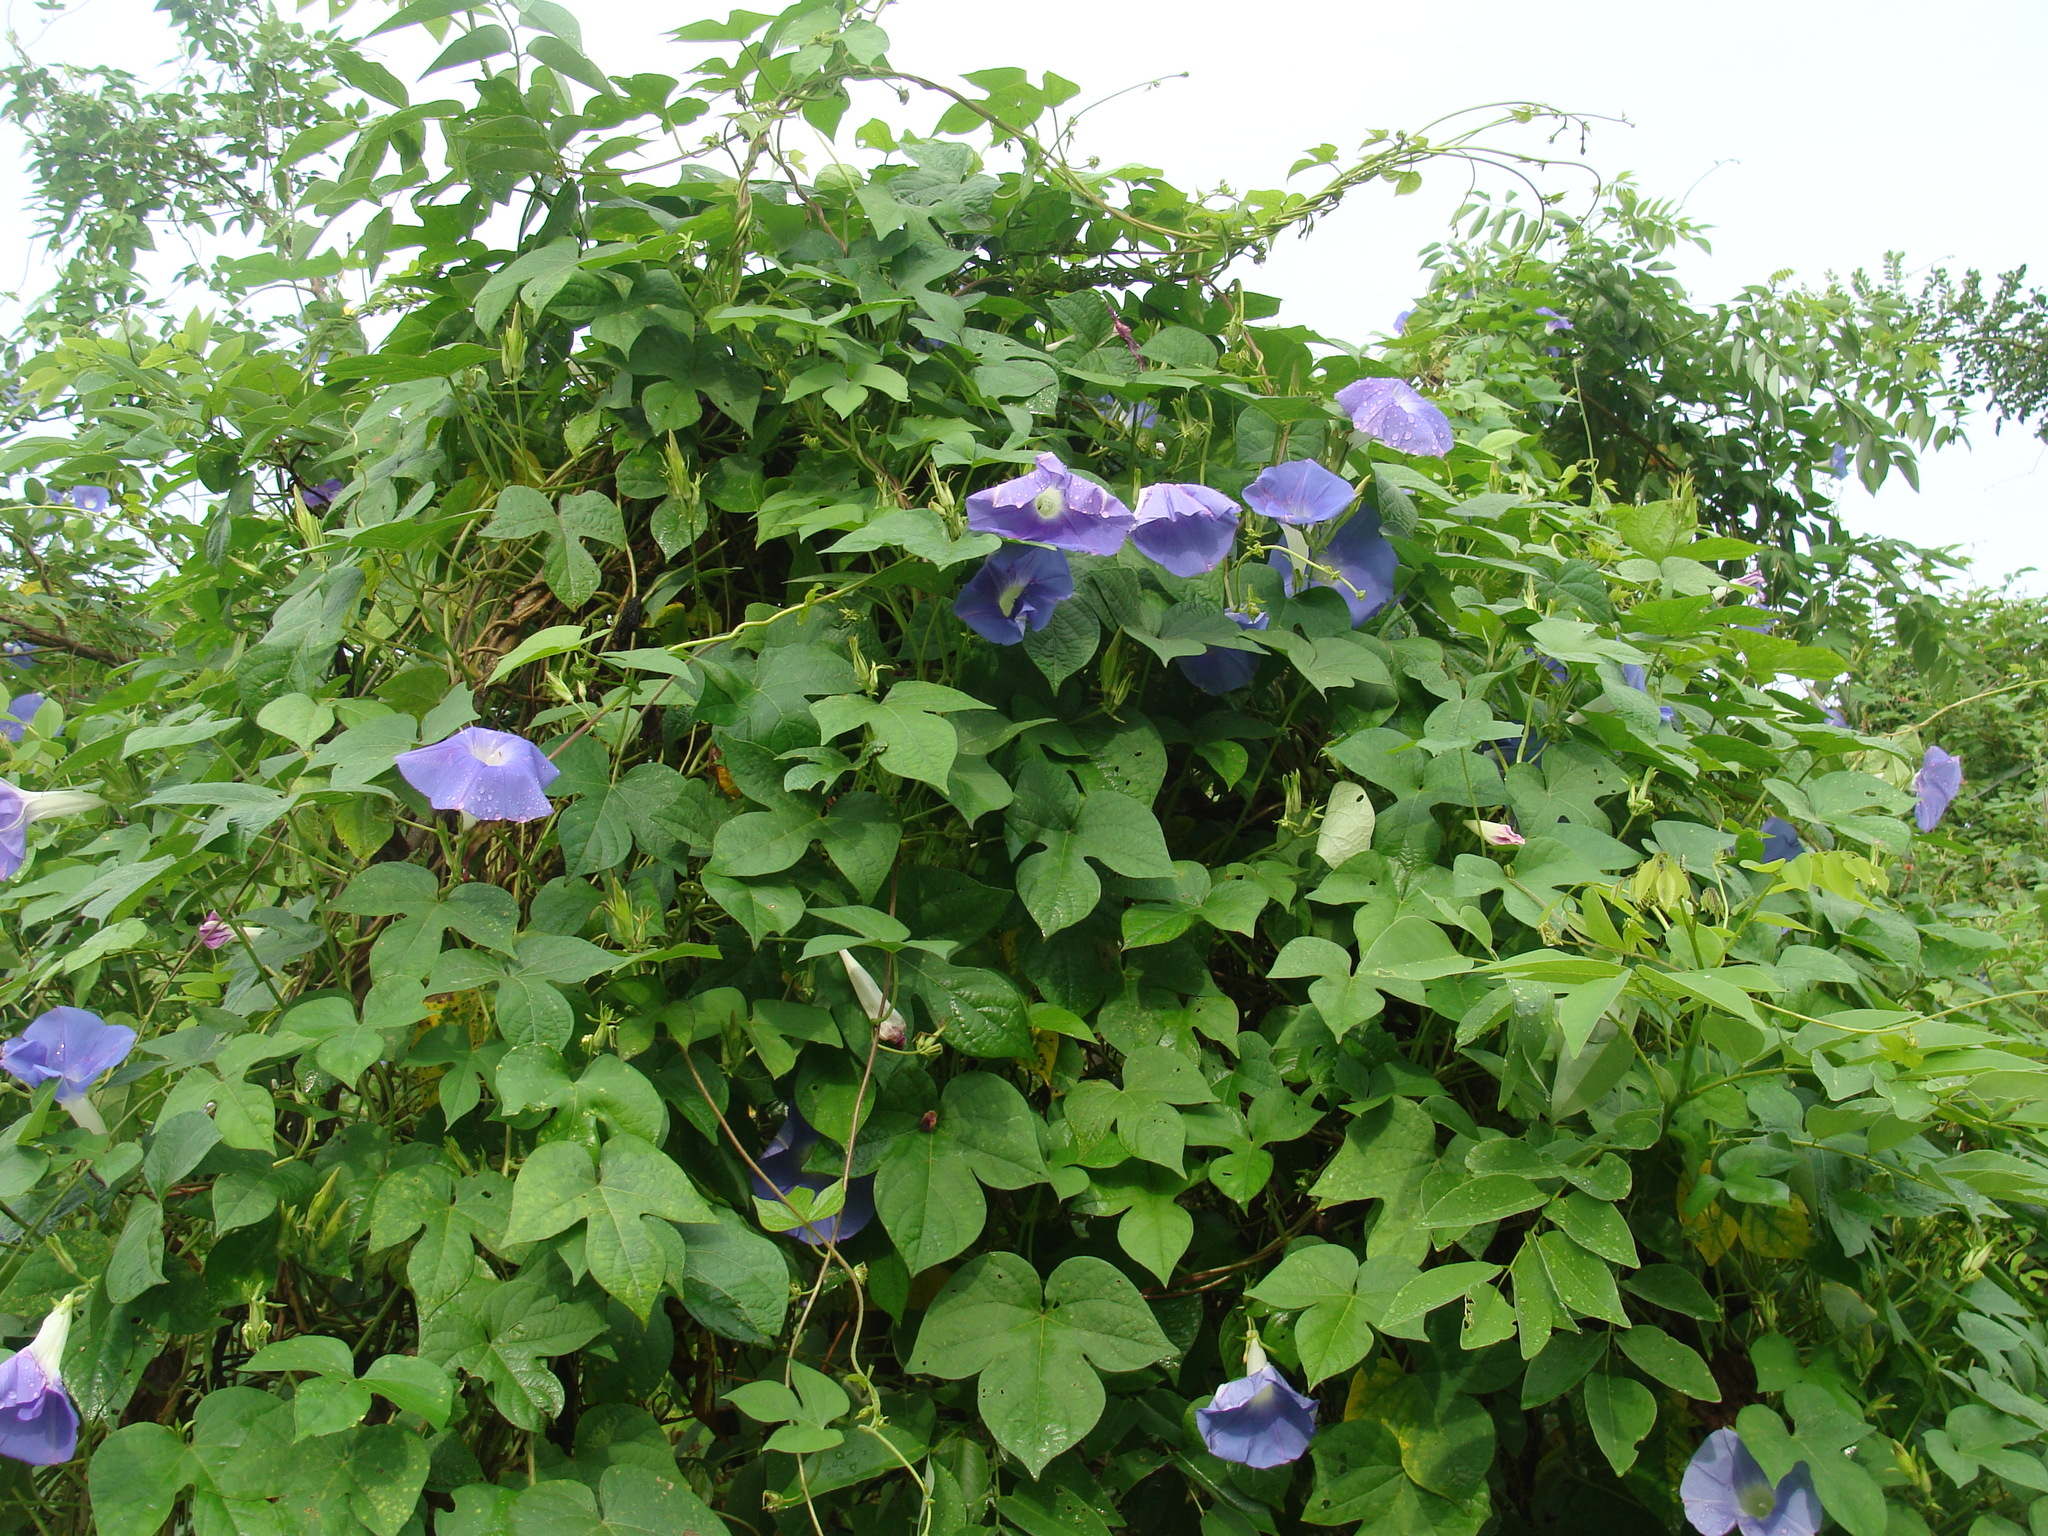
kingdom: Plantae
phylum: Tracheophyta
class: Magnoliopsida
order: Solanales
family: Convolvulaceae
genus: Ipomoea
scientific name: Ipomoea nil
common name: Japanese morning-glory
